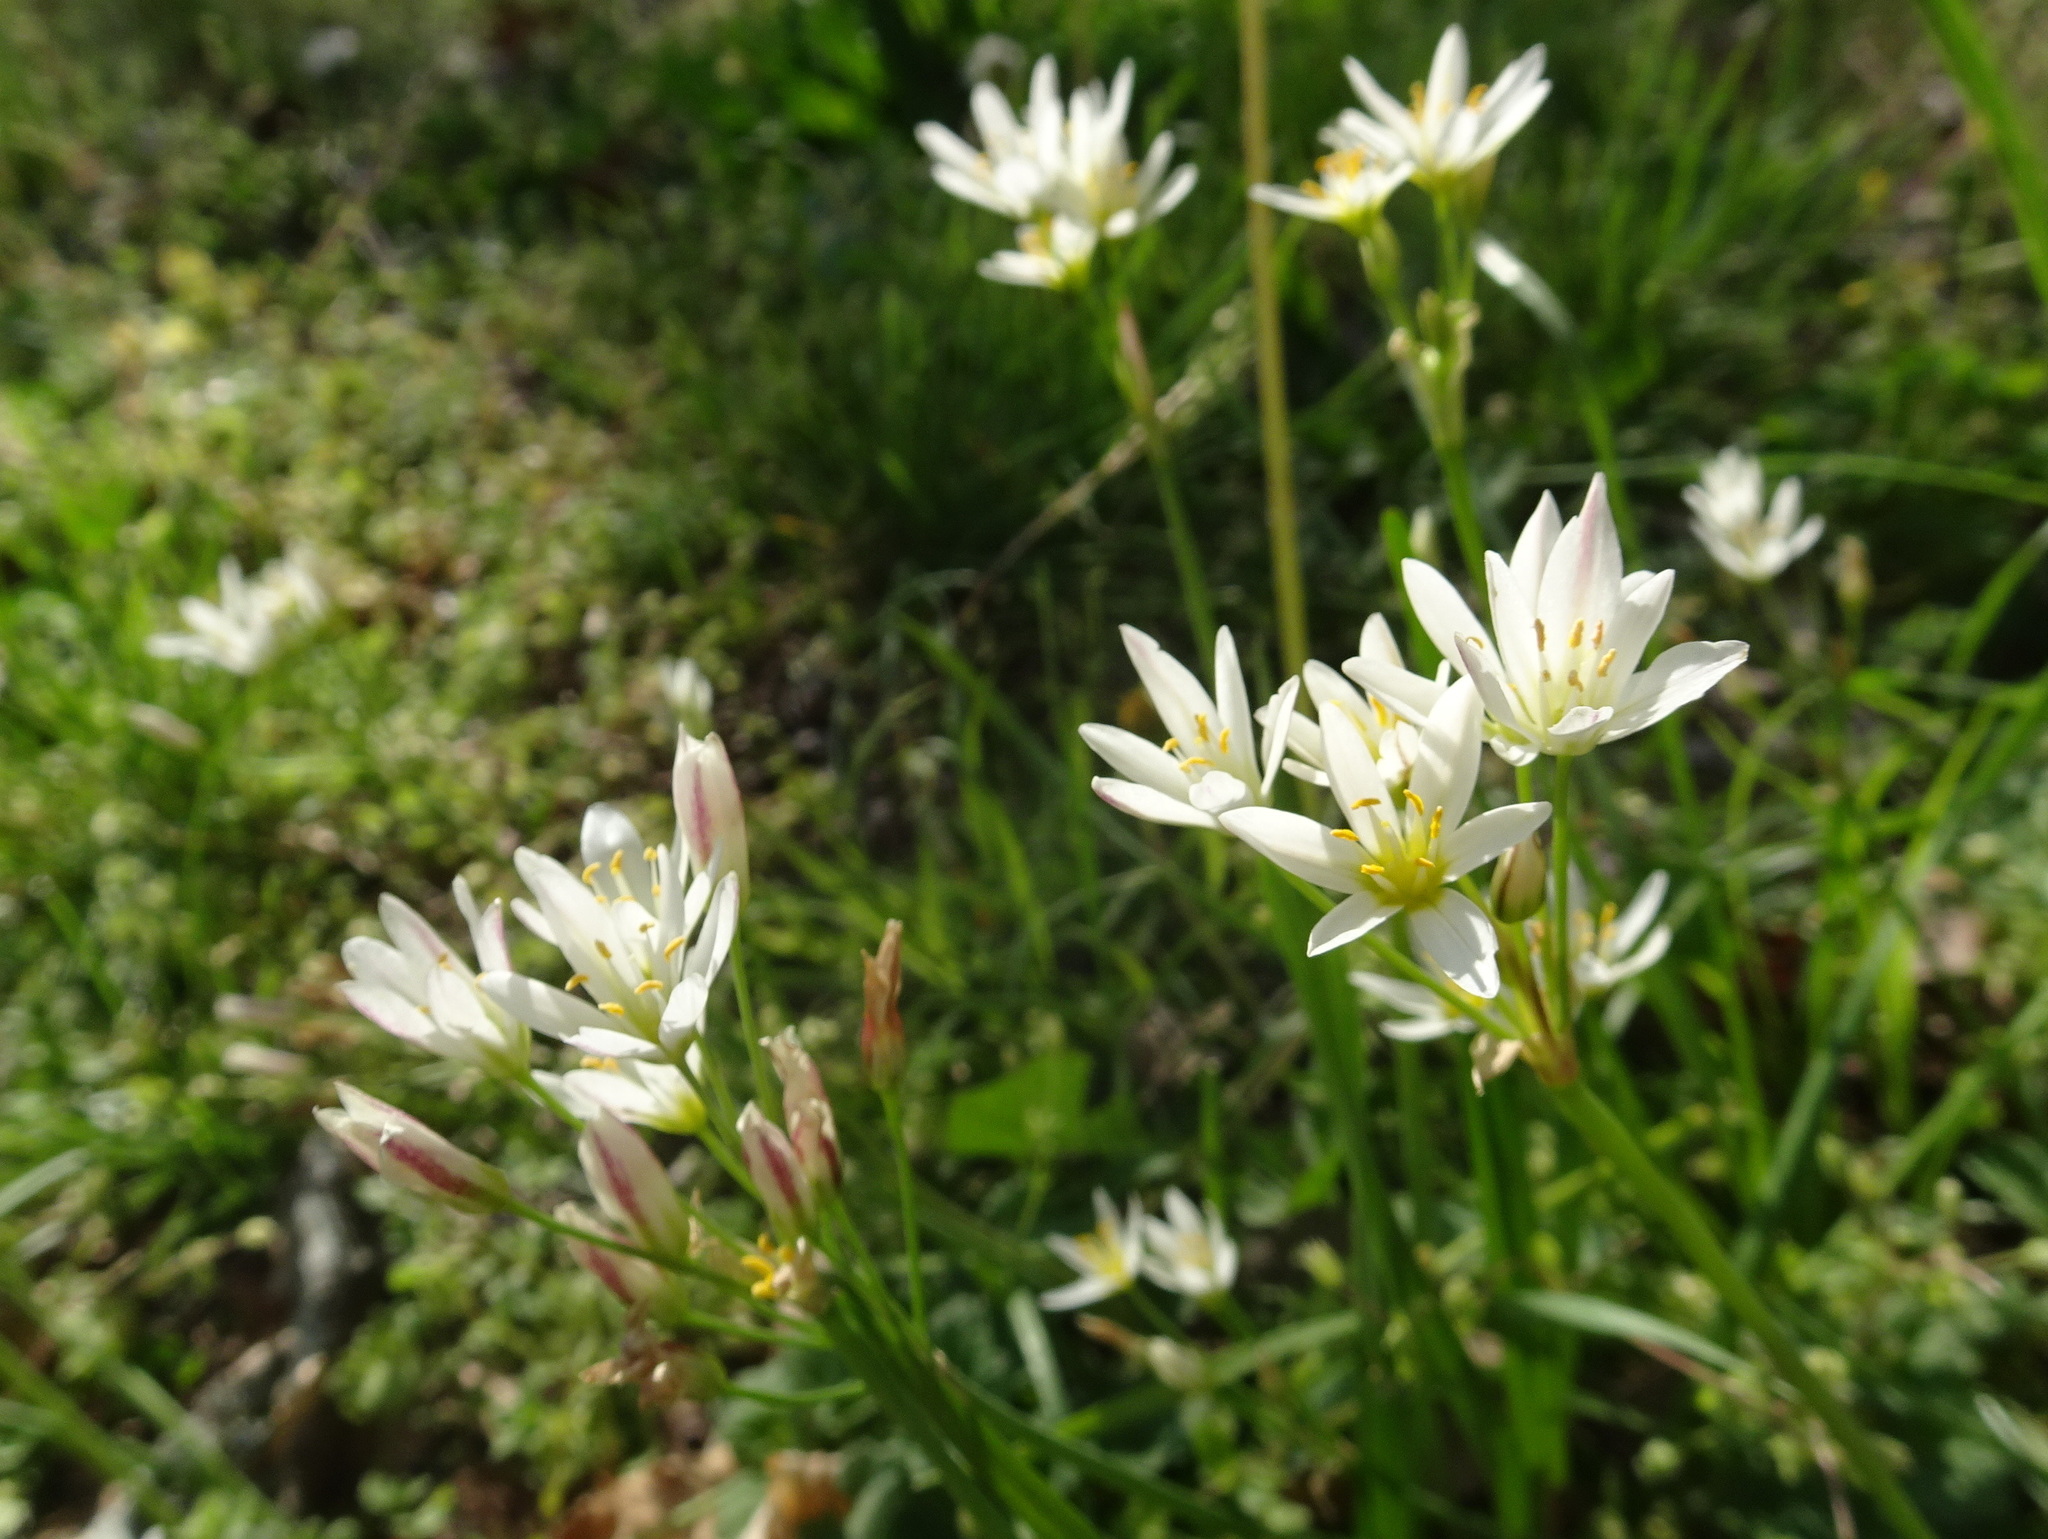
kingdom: Plantae
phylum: Tracheophyta
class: Liliopsida
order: Asparagales
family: Amaryllidaceae
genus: Nothoscordum
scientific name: Nothoscordum bivalve
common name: Crow-poison
